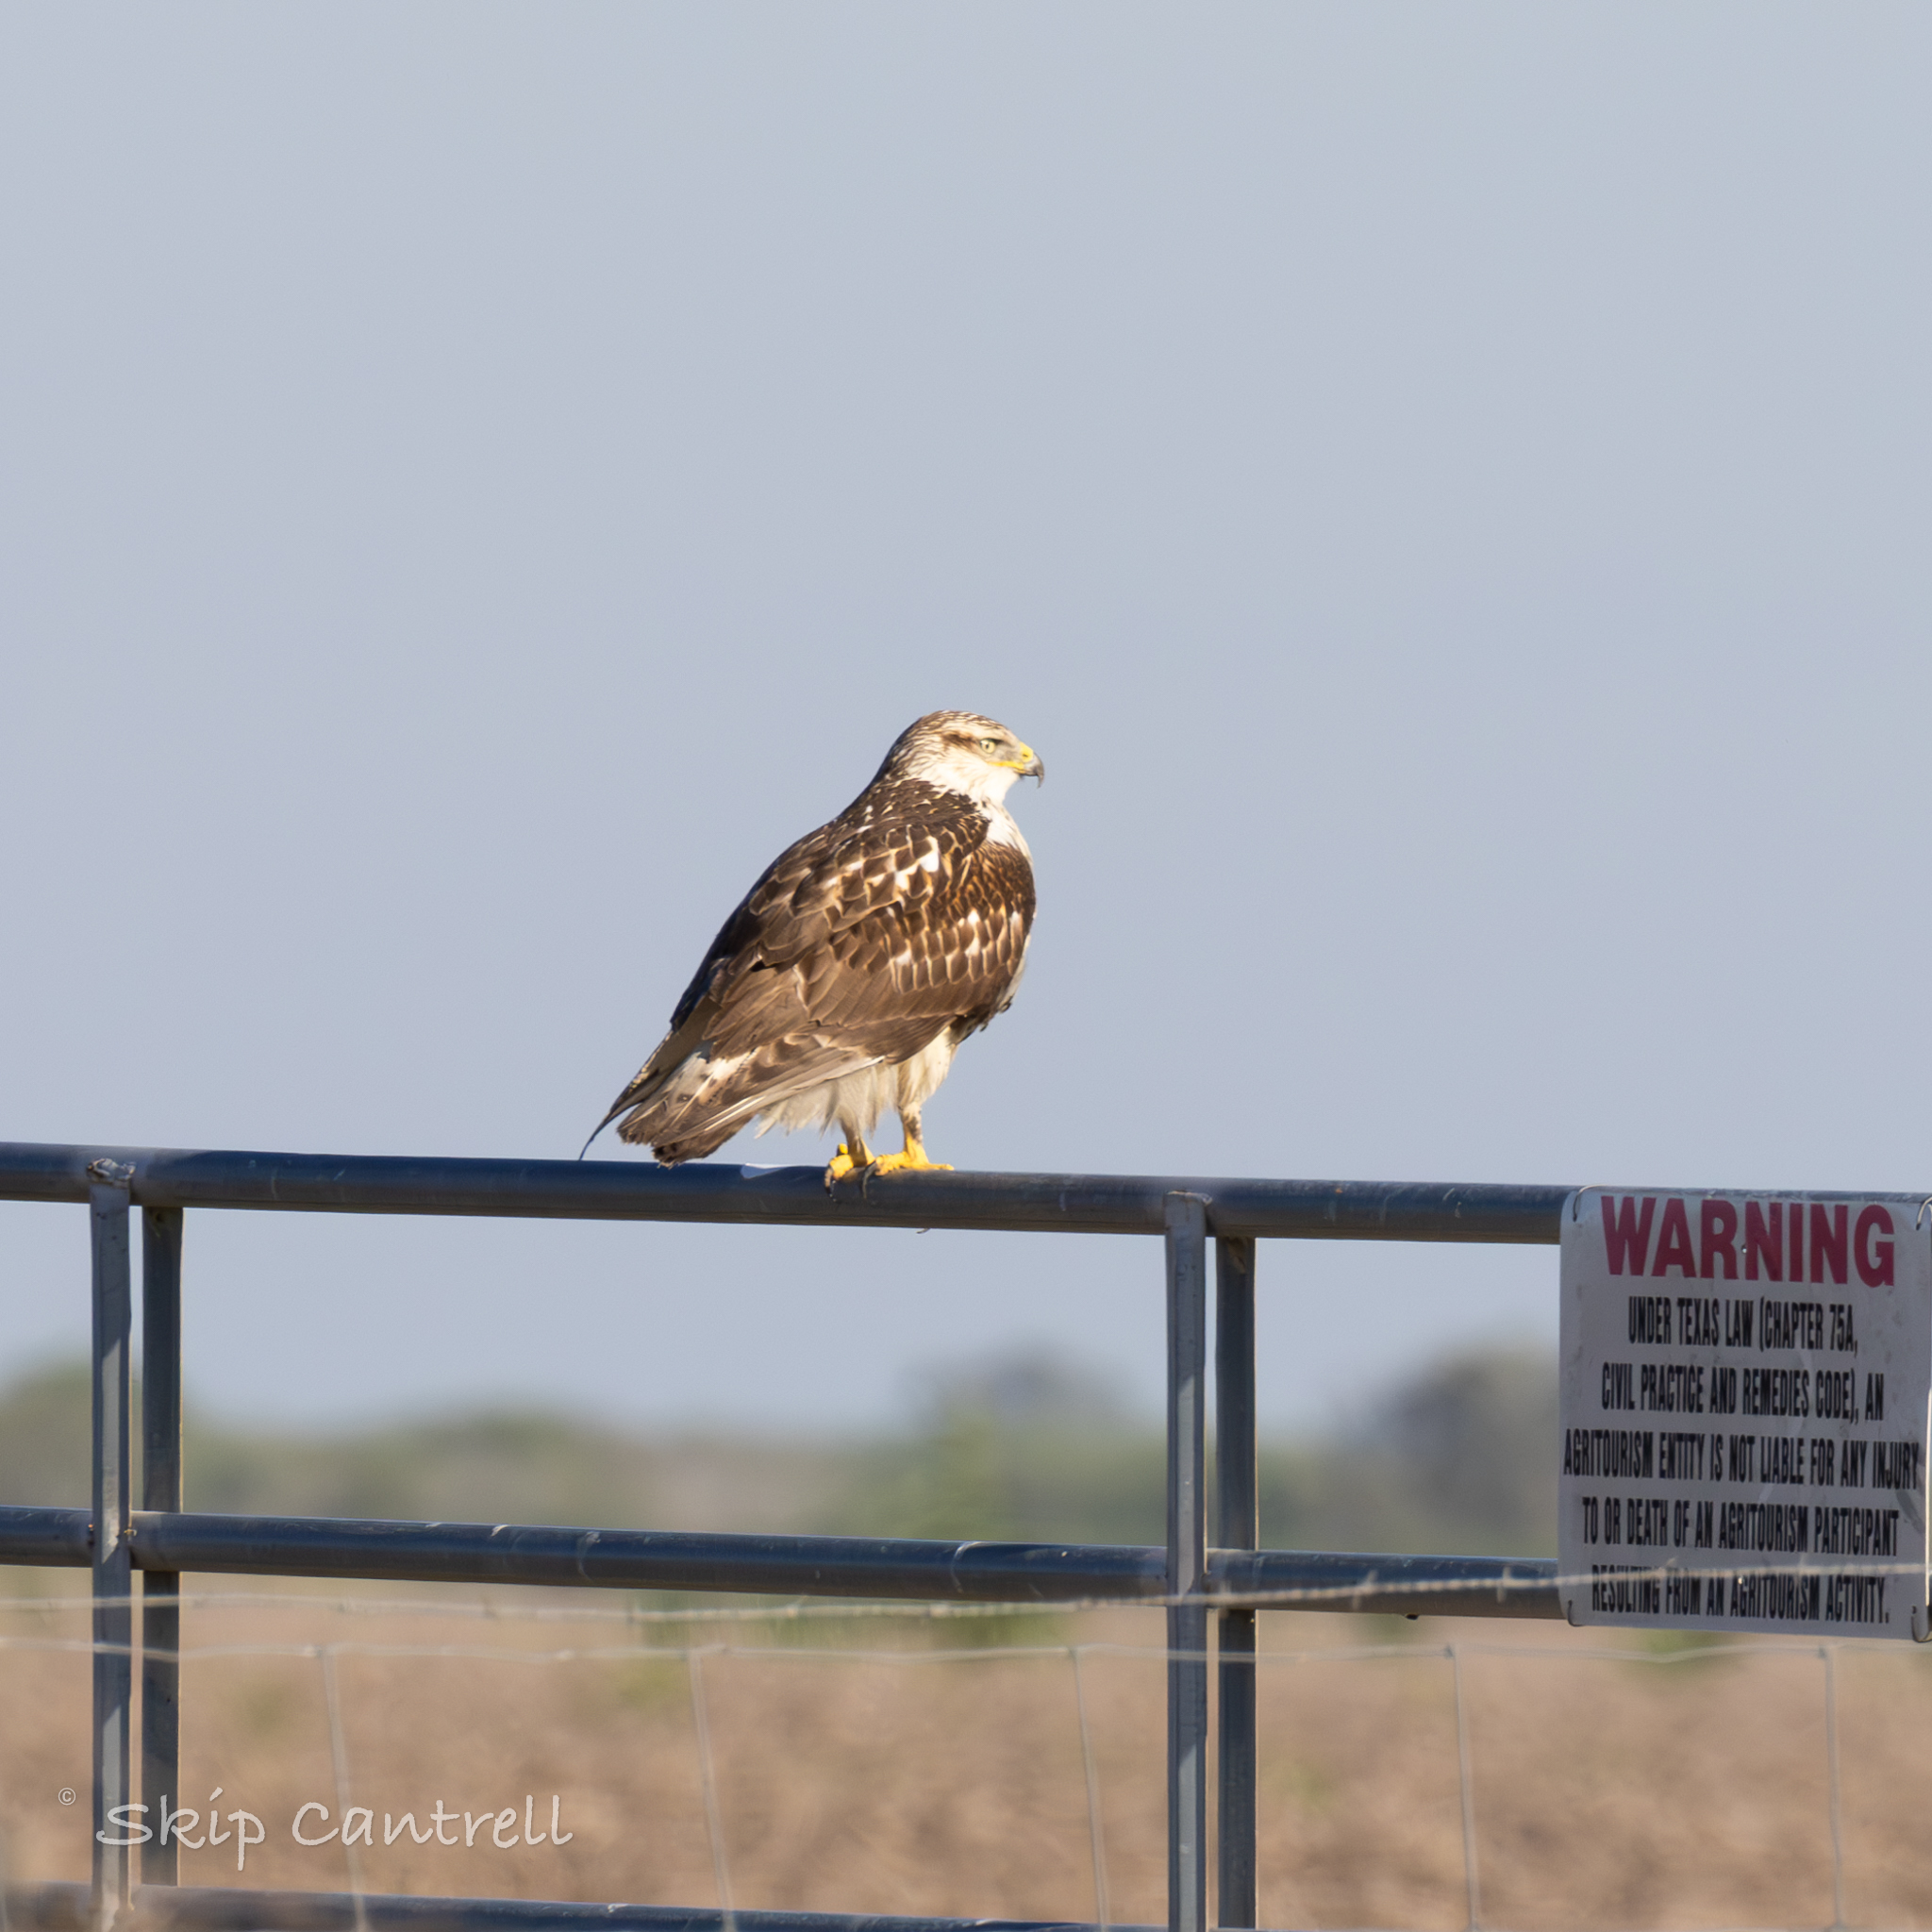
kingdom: Animalia
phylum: Chordata
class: Aves
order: Accipitriformes
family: Accipitridae
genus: Buteo
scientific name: Buteo regalis
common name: Ferruginous hawk
